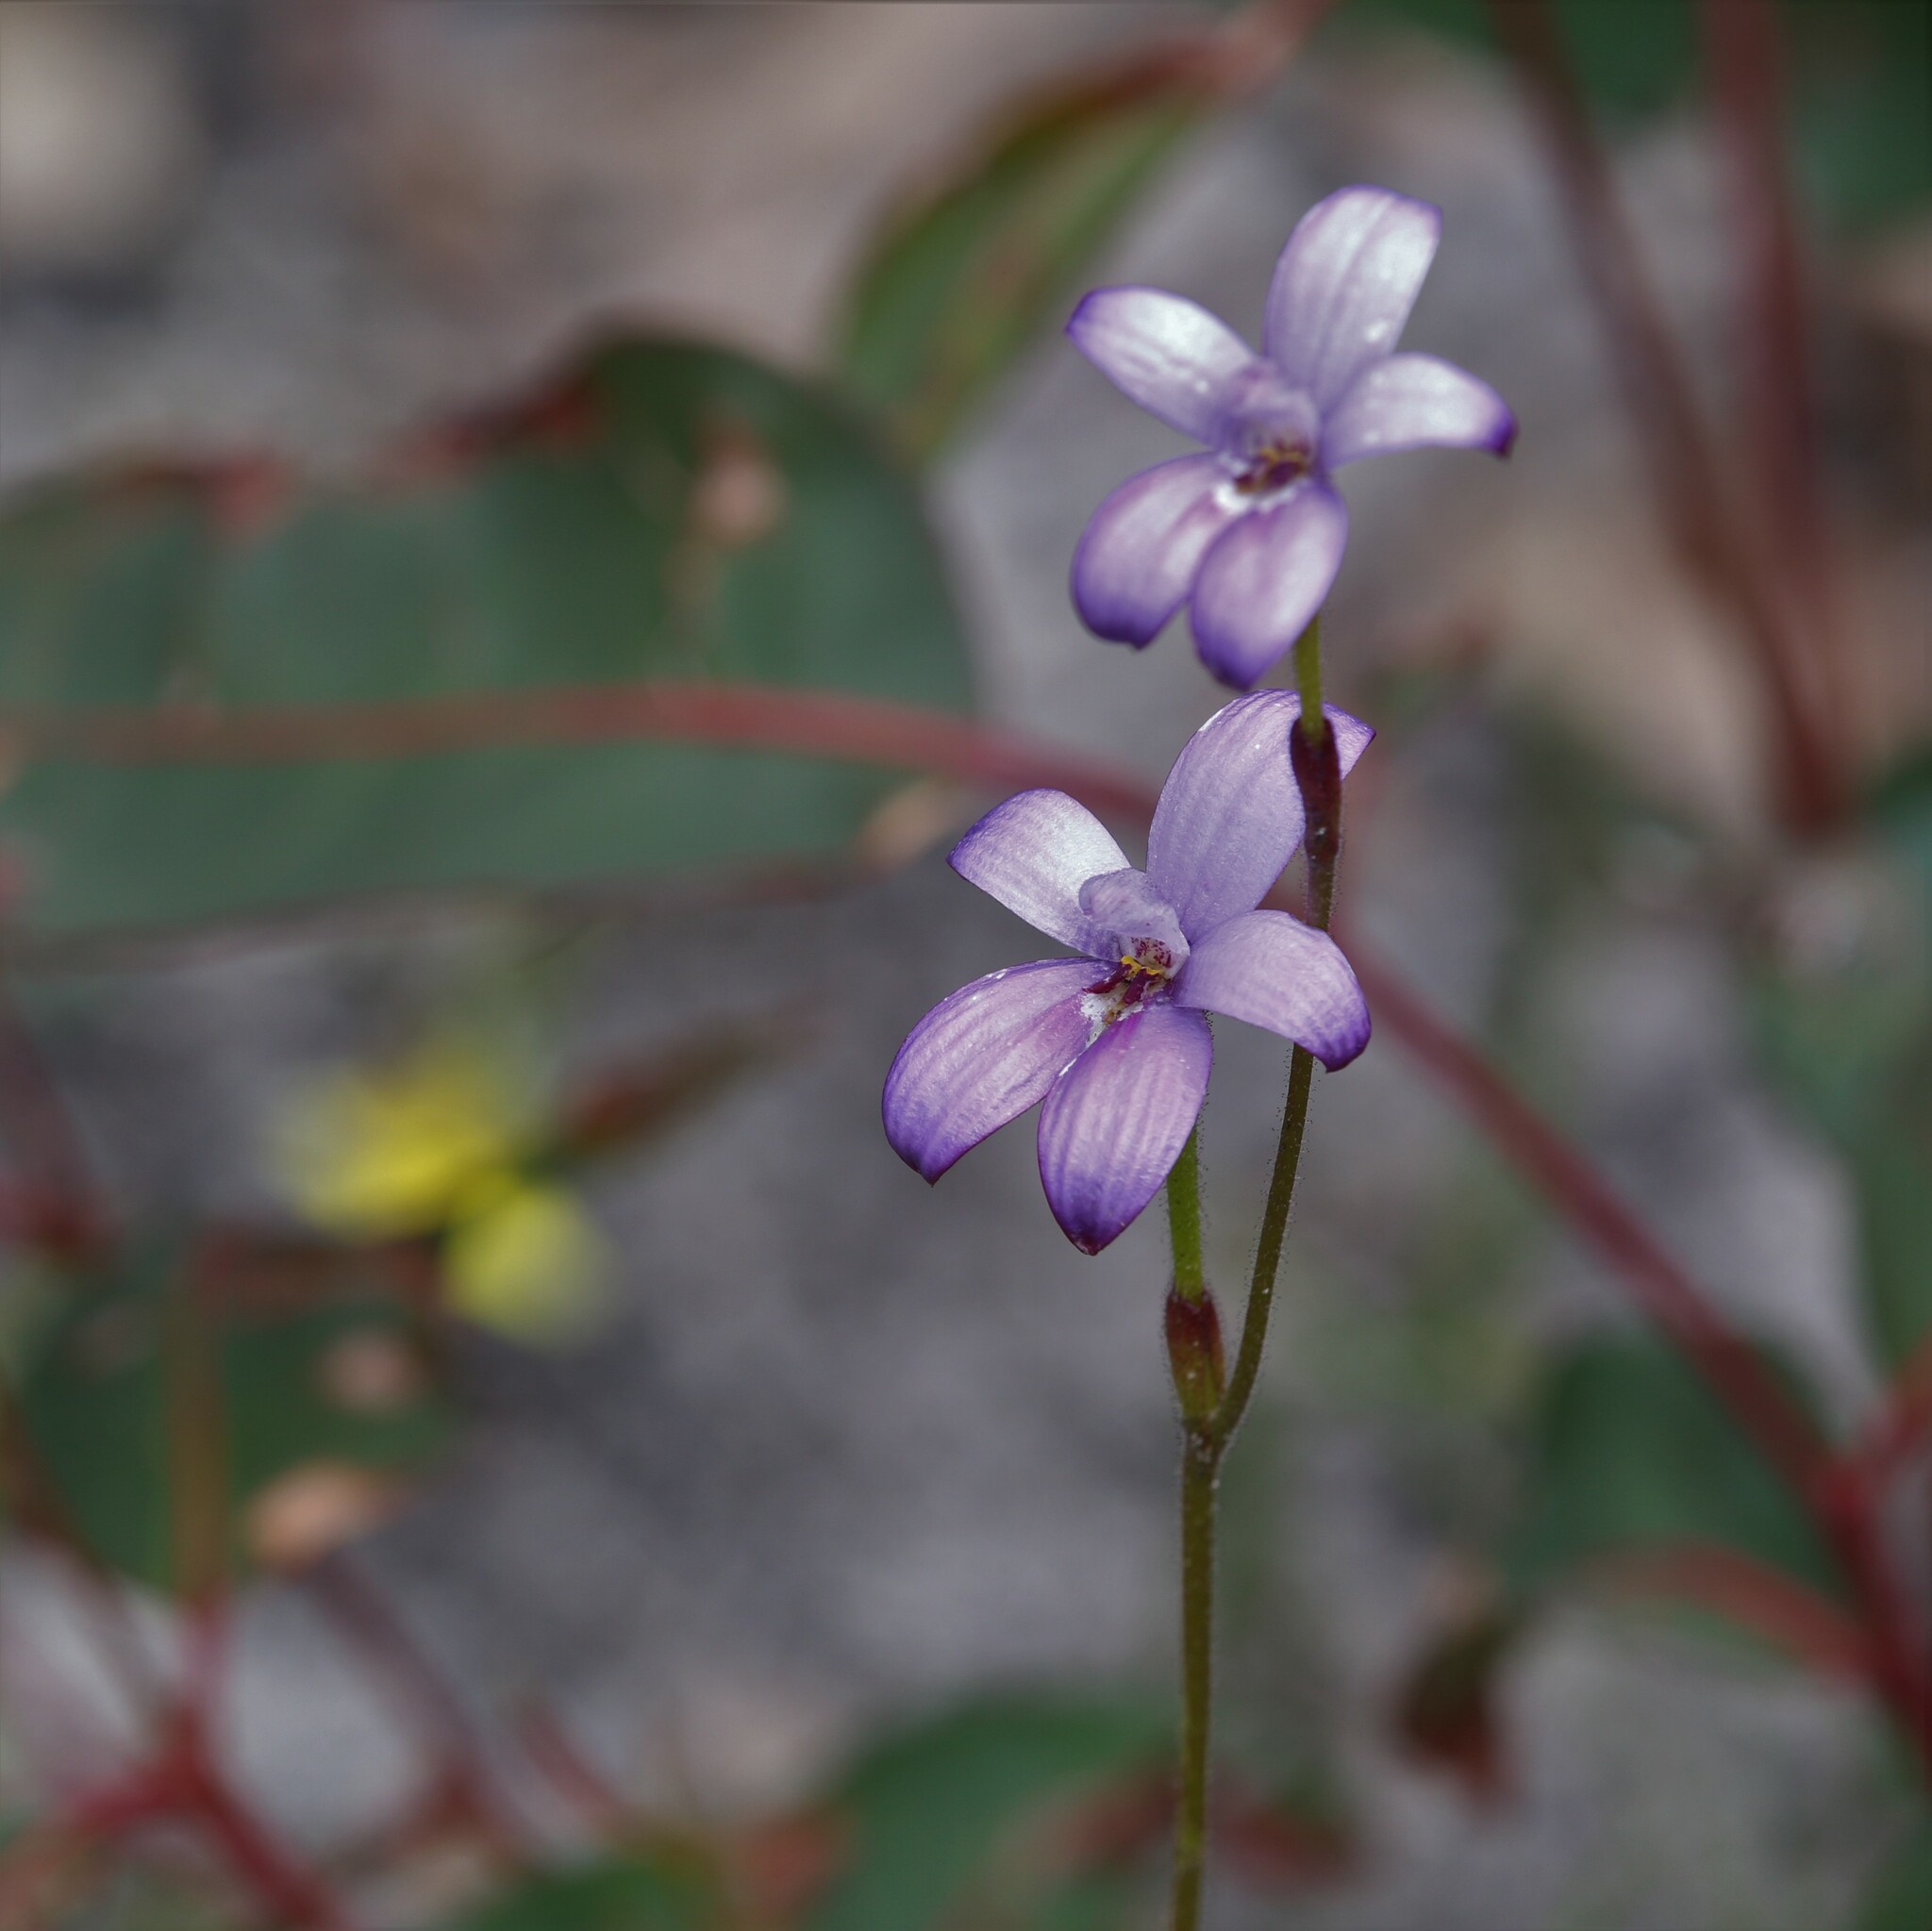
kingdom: Plantae
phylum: Tracheophyta
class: Liliopsida
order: Asparagales
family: Orchidaceae
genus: Caladenia
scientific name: Caladenia brunonis
